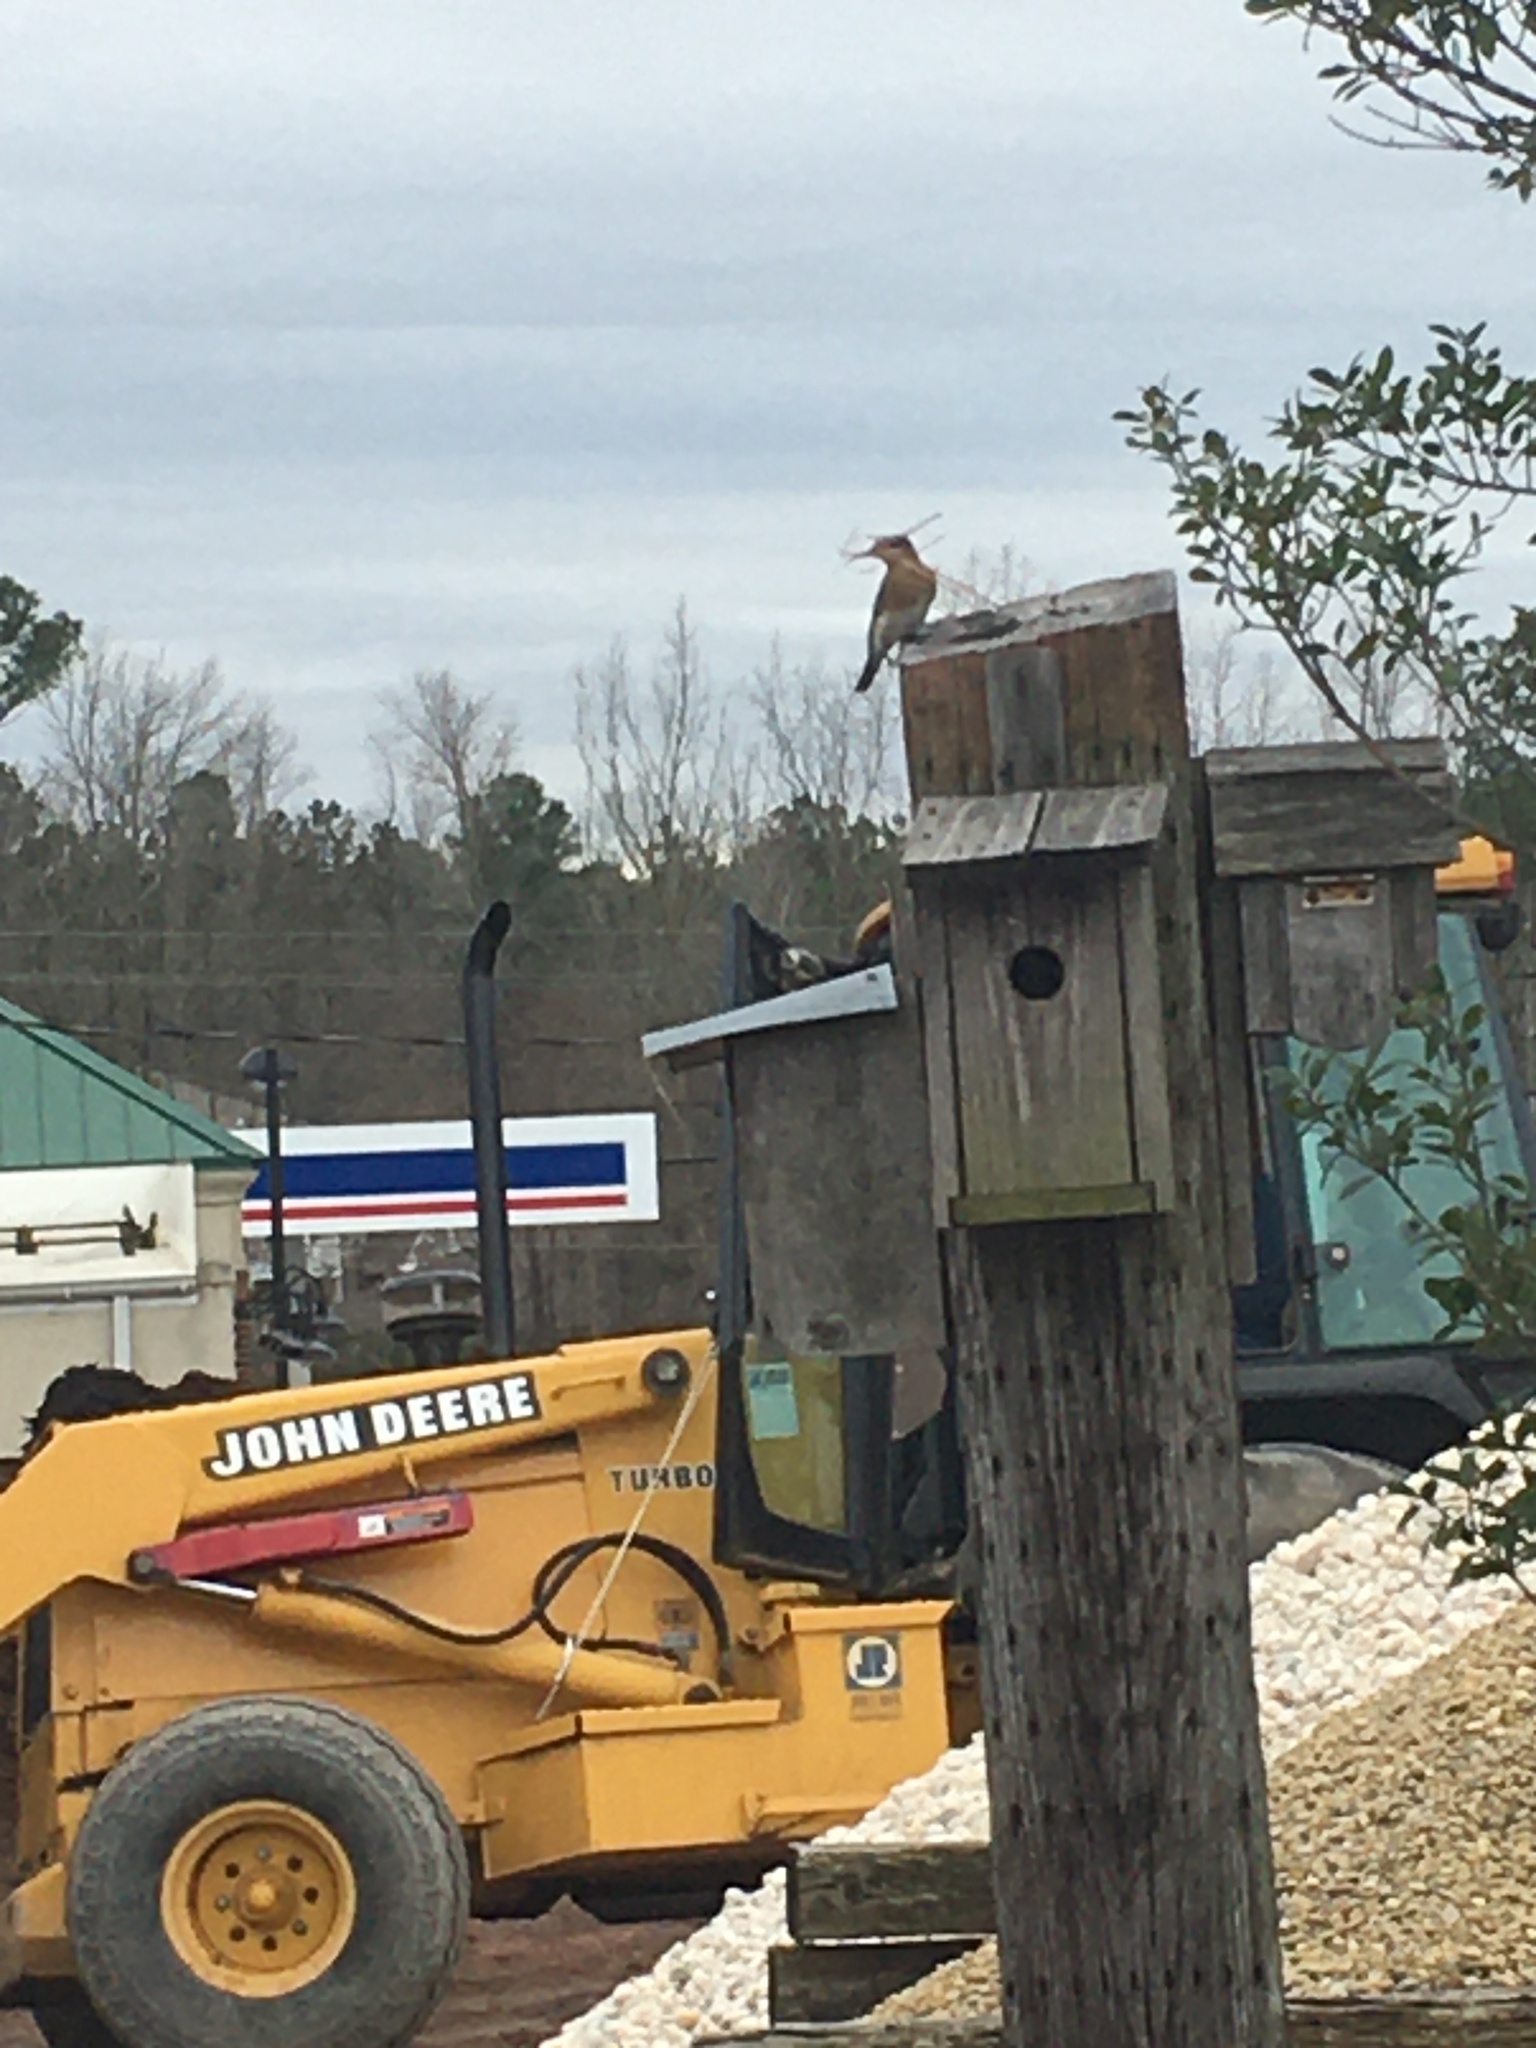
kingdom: Animalia
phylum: Chordata
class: Aves
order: Passeriformes
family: Turdidae
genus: Sialia
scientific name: Sialia sialis
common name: Eastern bluebird
